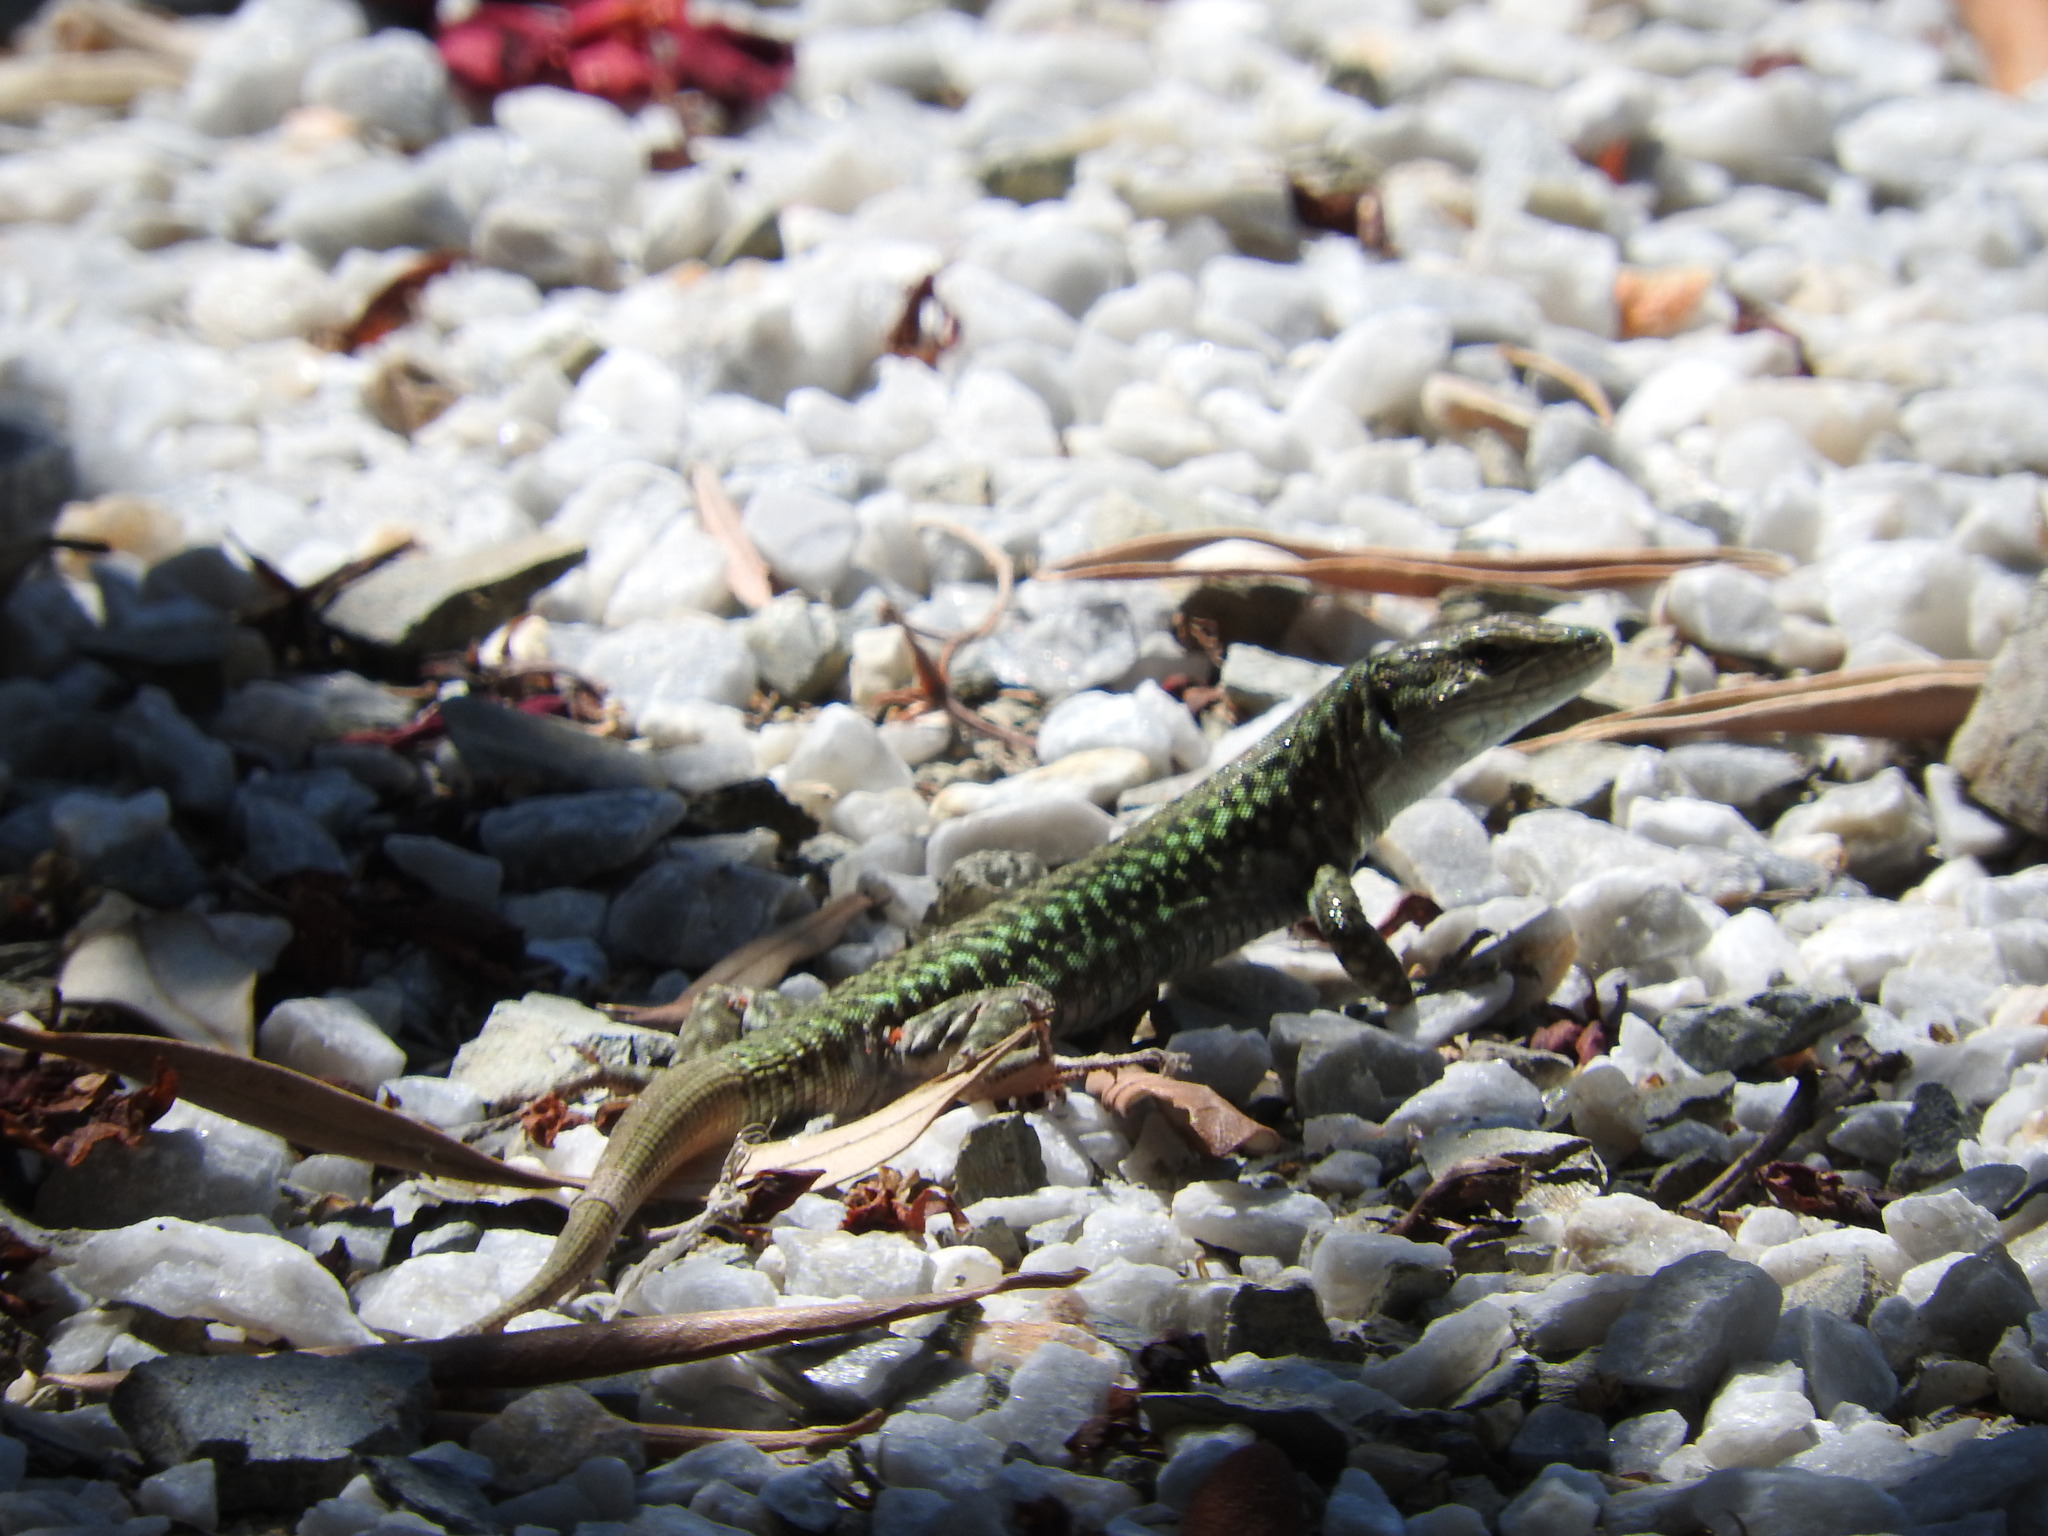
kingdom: Animalia
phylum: Chordata
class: Squamata
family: Lacertidae
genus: Podarcis
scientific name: Podarcis erhardii
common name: Erhard's wall lizard
